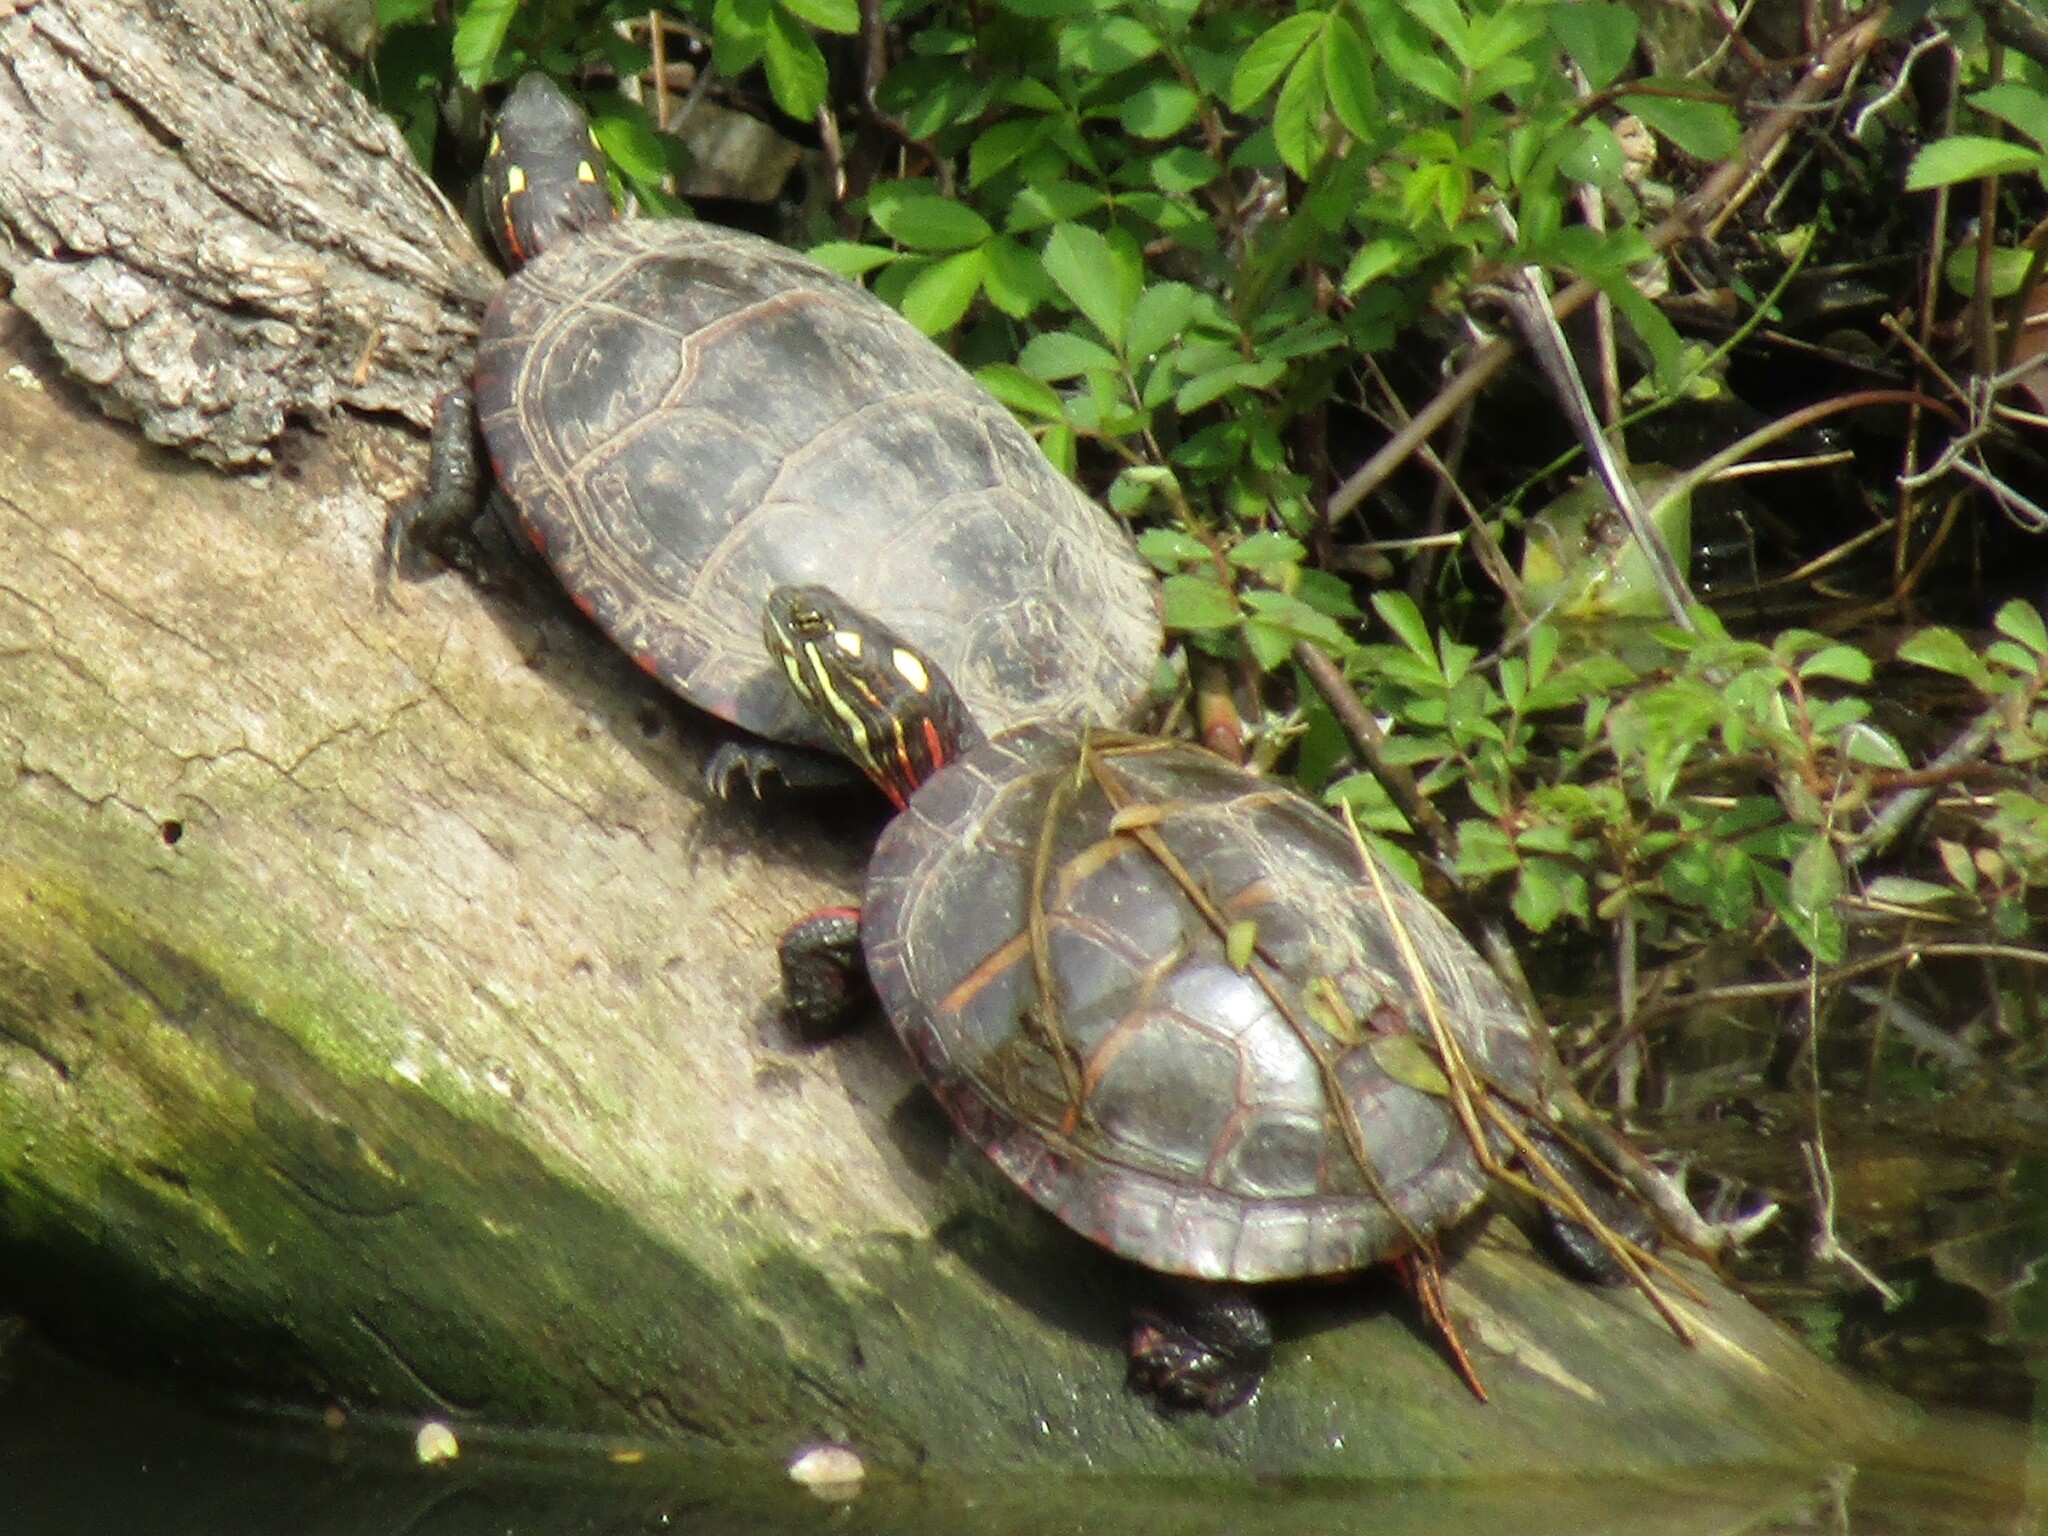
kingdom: Animalia
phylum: Chordata
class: Testudines
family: Emydidae
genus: Chrysemys
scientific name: Chrysemys picta
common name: Painted turtle
